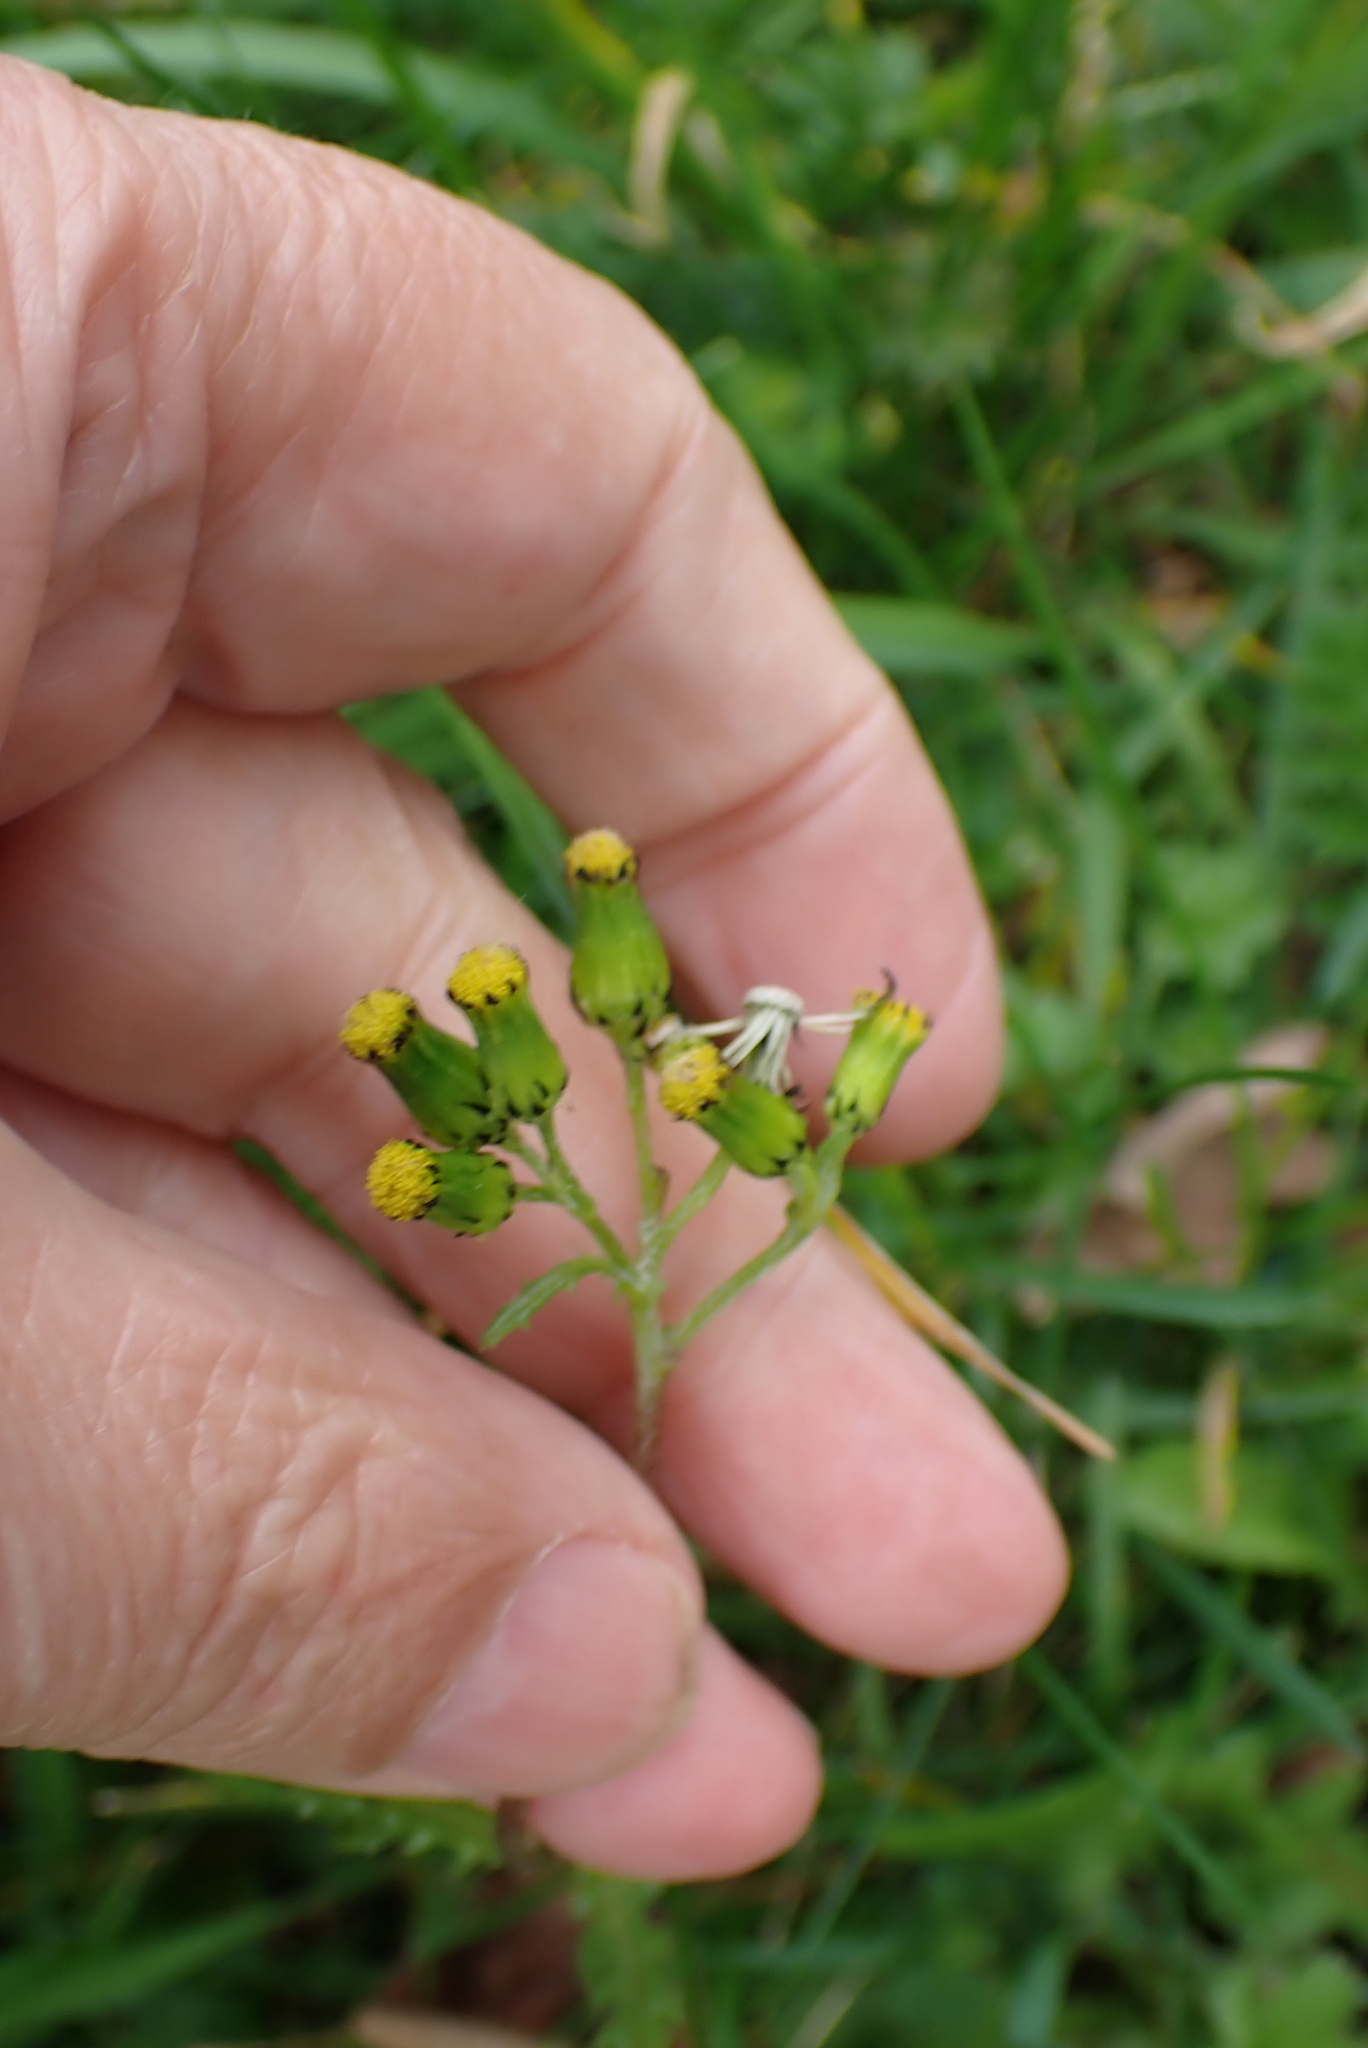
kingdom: Plantae
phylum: Tracheophyta
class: Magnoliopsida
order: Asterales
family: Asteraceae
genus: Senecio
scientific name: Senecio vulgaris
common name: Old-man-in-the-spring
